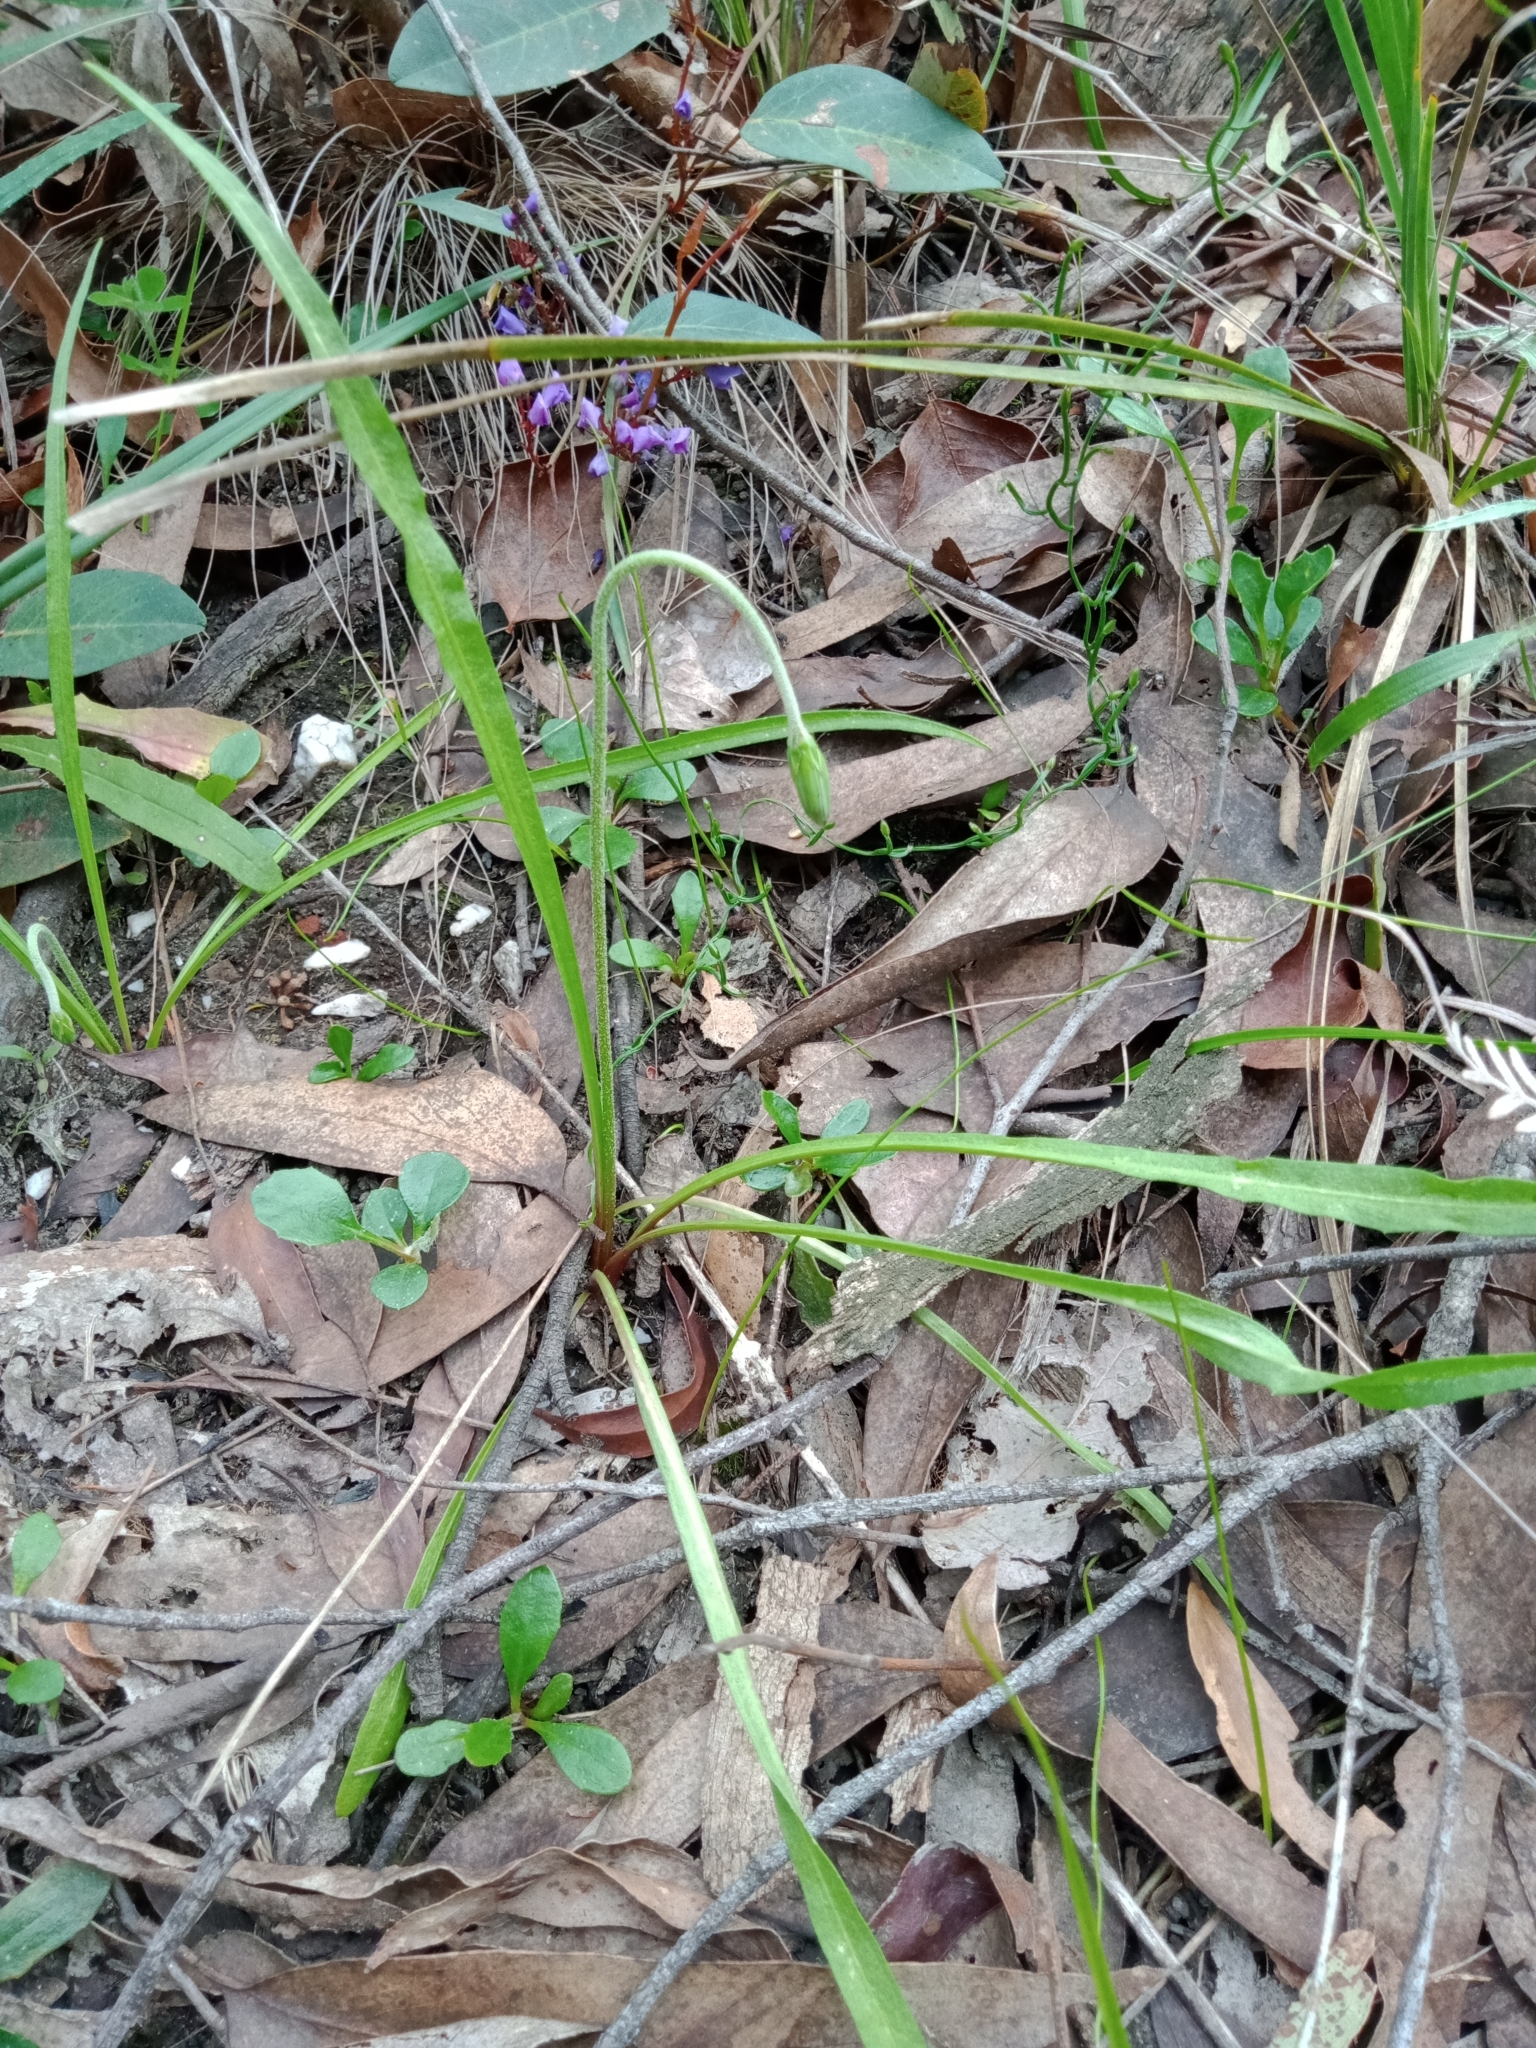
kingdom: Plantae
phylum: Tracheophyta
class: Magnoliopsida
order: Asterales
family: Asteraceae
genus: Microseris
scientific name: Microseris lanceolata
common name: Yam daisy
